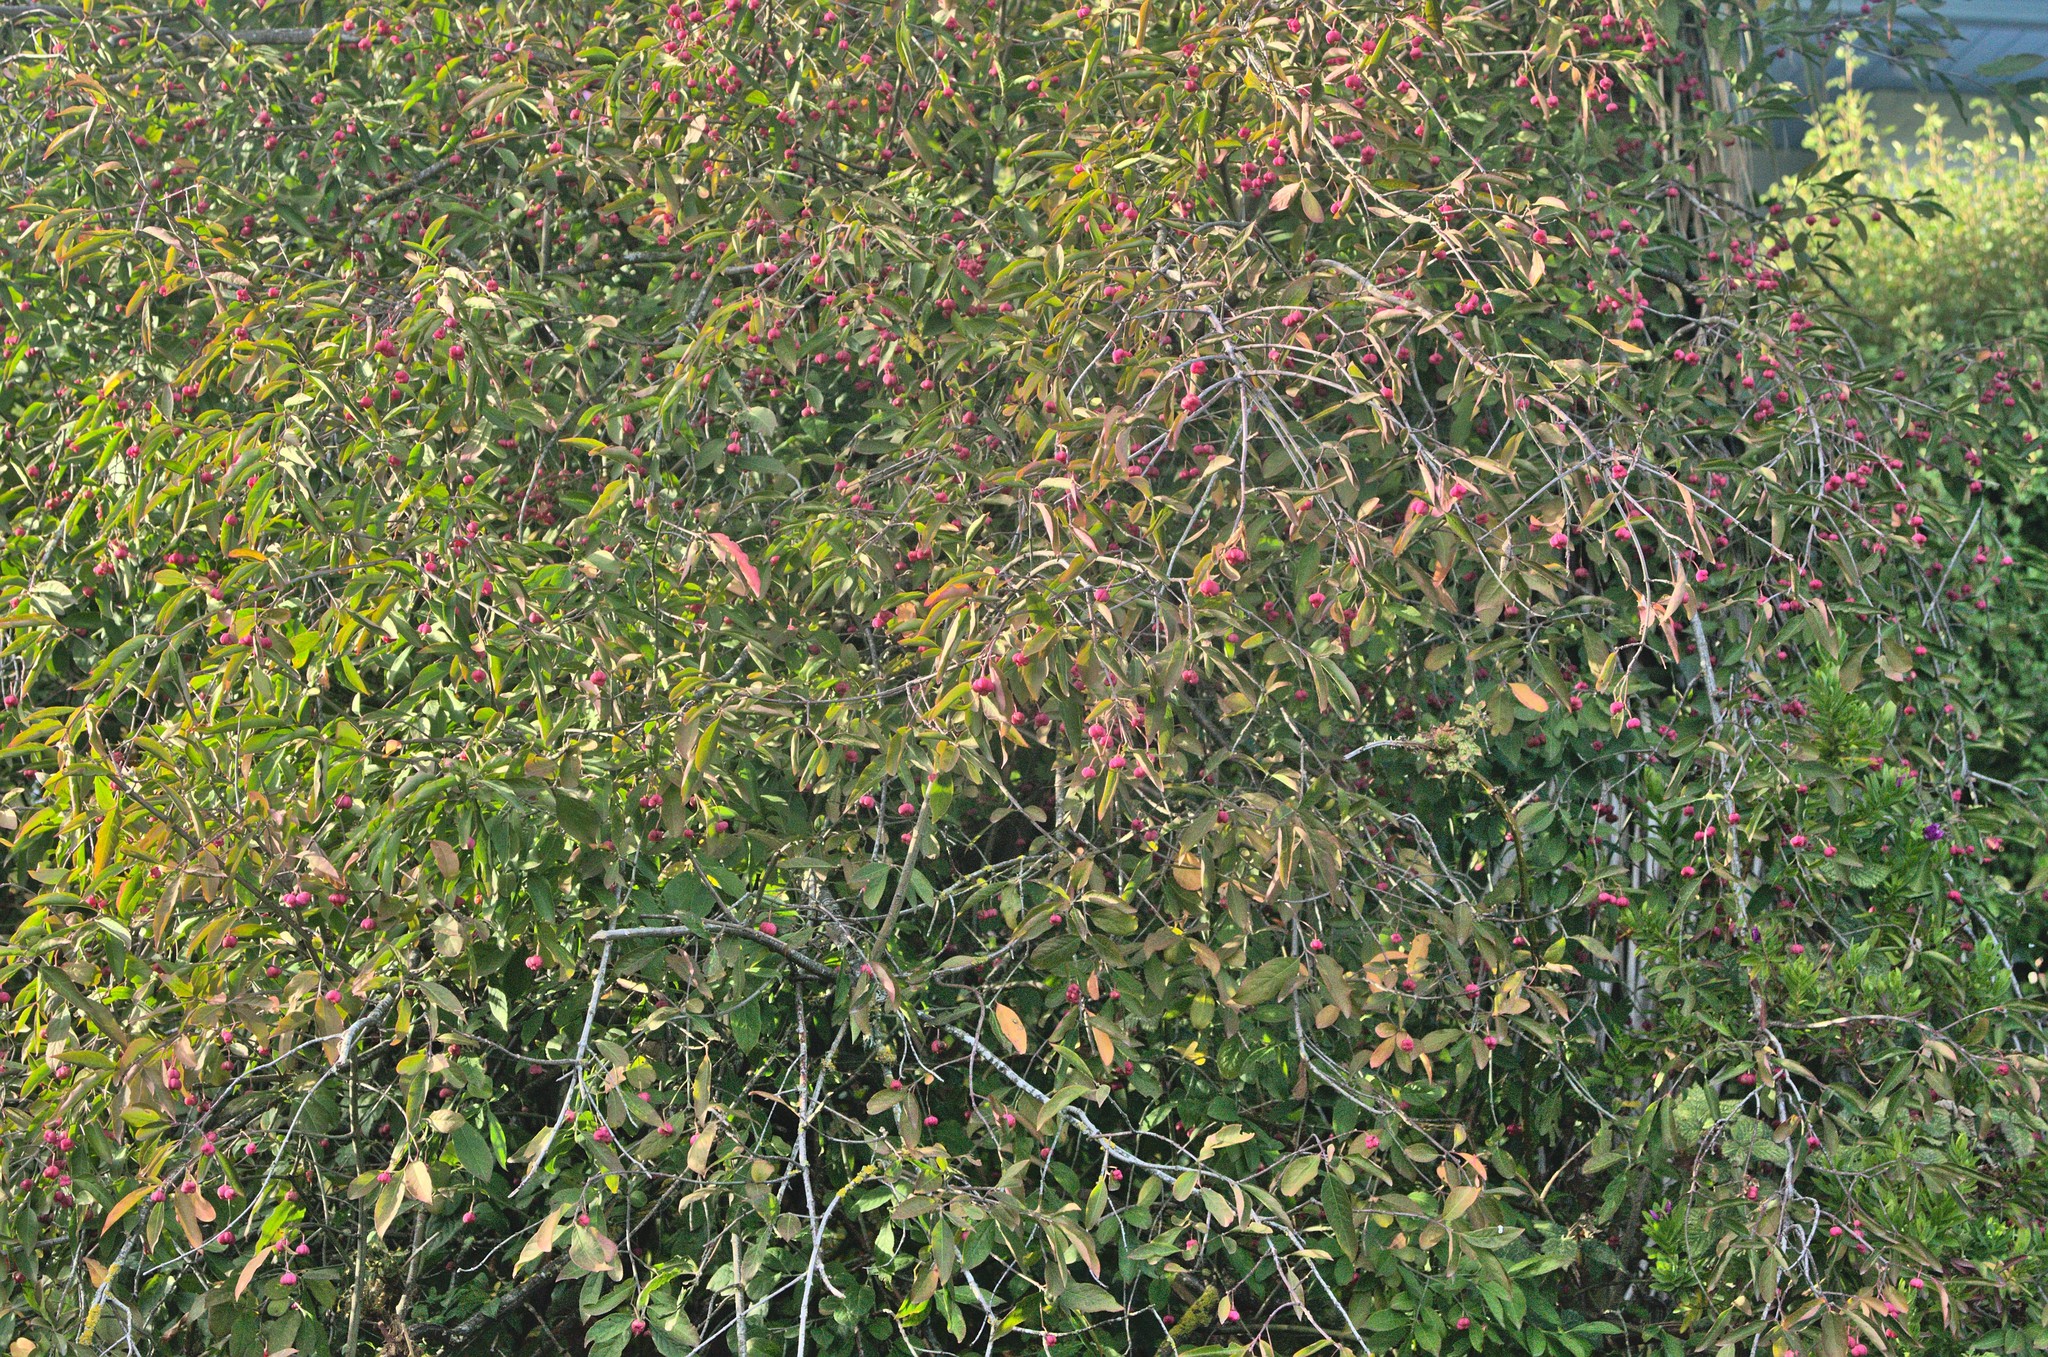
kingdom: Plantae
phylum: Tracheophyta
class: Magnoliopsida
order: Celastrales
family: Celastraceae
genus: Euonymus
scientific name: Euonymus europaeus
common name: Spindle
